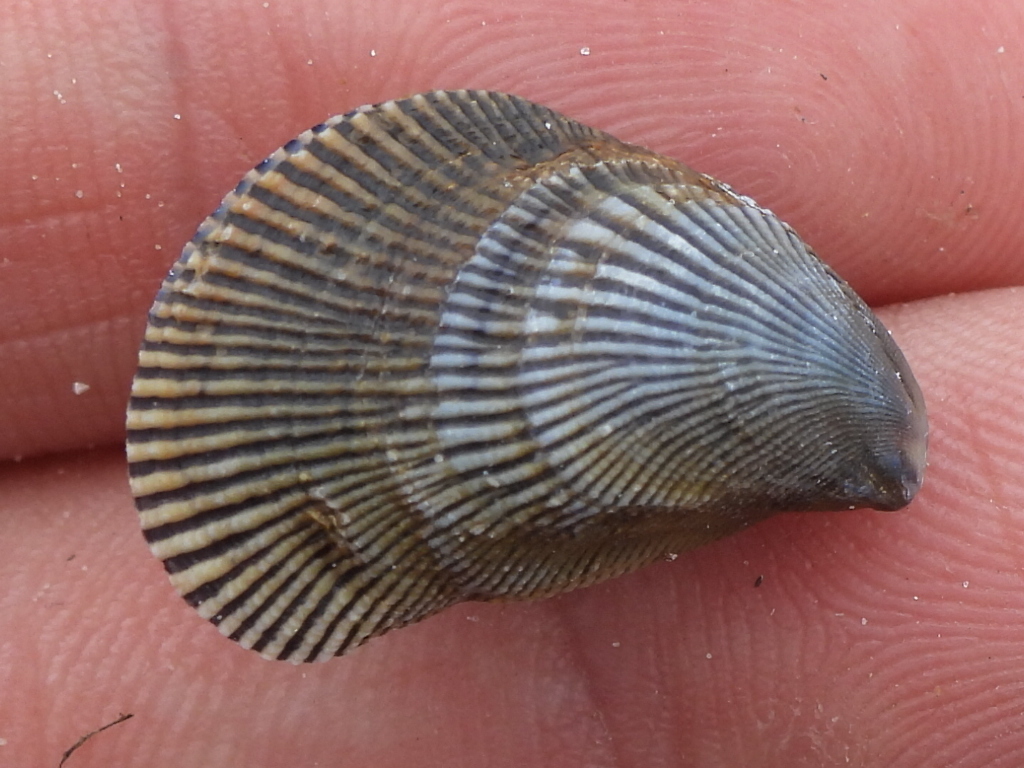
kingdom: Animalia
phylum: Mollusca
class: Bivalvia
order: Mytilida
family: Mytilidae
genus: Ischadium
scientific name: Ischadium recurvum
